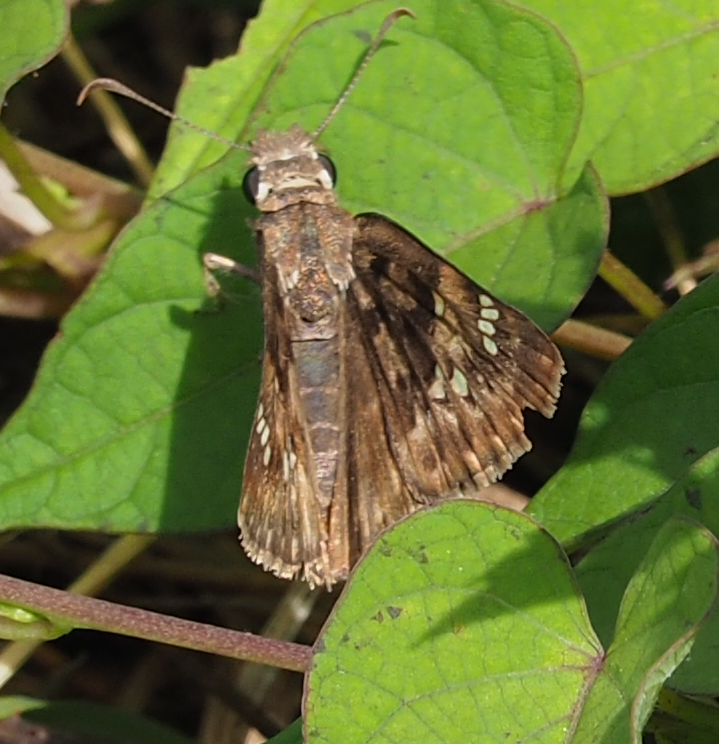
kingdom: Animalia
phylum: Arthropoda
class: Insecta
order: Lepidoptera
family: Hesperiidae
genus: Erynnis
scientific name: Erynnis horatius
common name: Horace's duskywing
